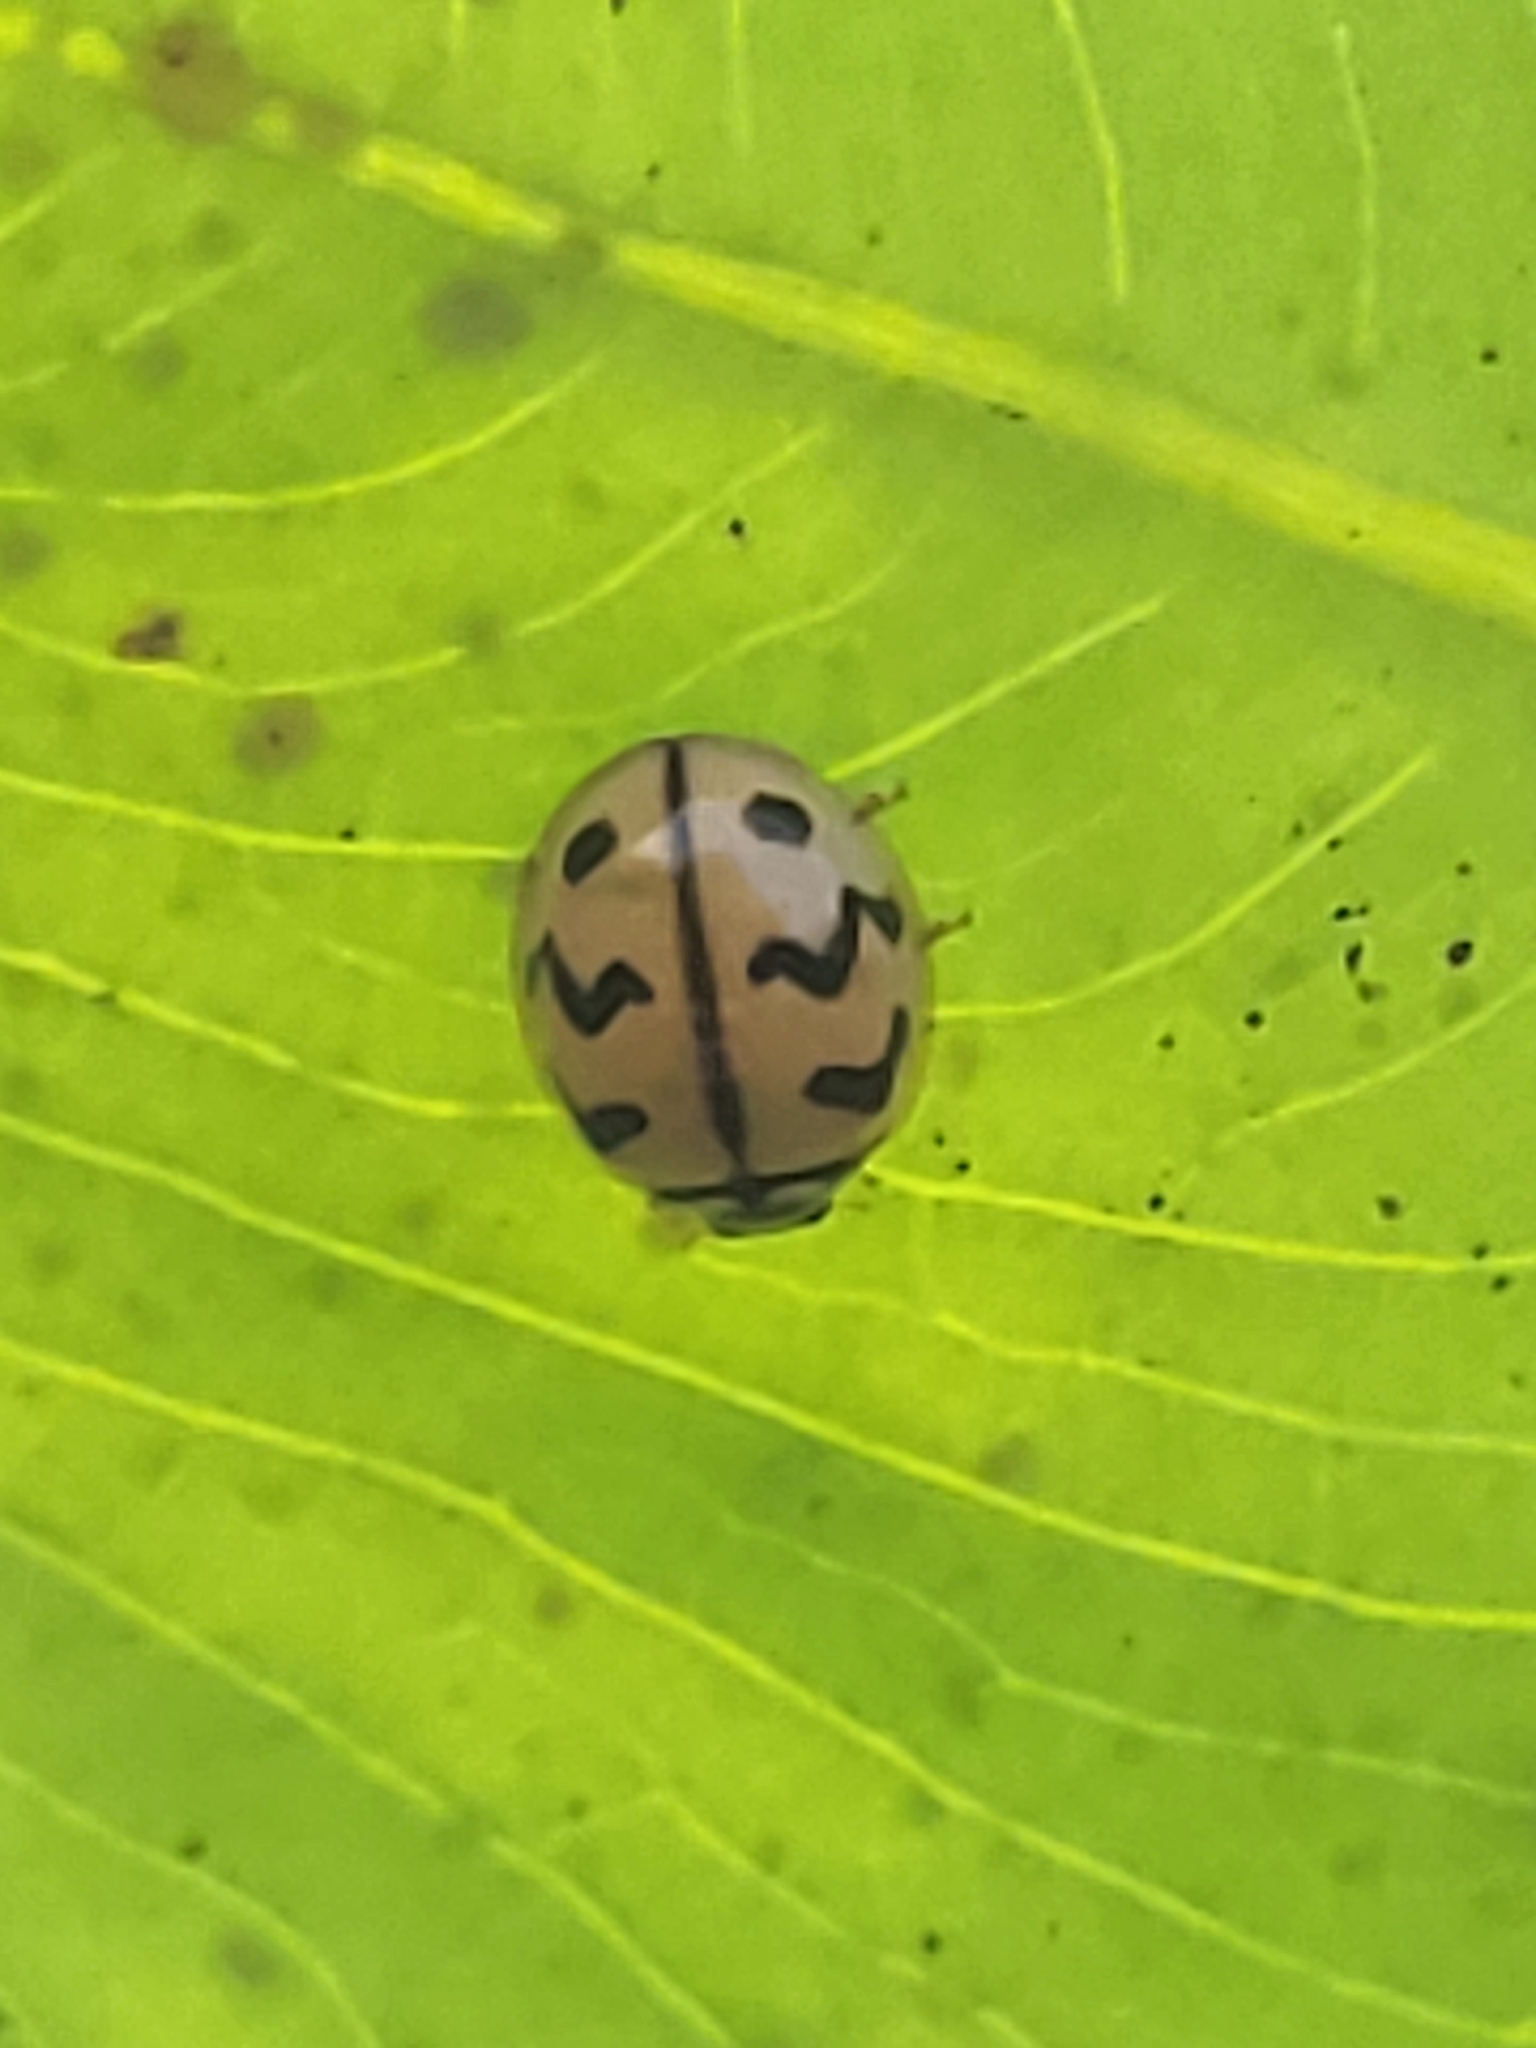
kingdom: Animalia
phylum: Arthropoda
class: Insecta
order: Coleoptera
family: Coccinellidae
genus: Cheilomenes
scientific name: Cheilomenes sexmaculata
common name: Ladybird beetle
